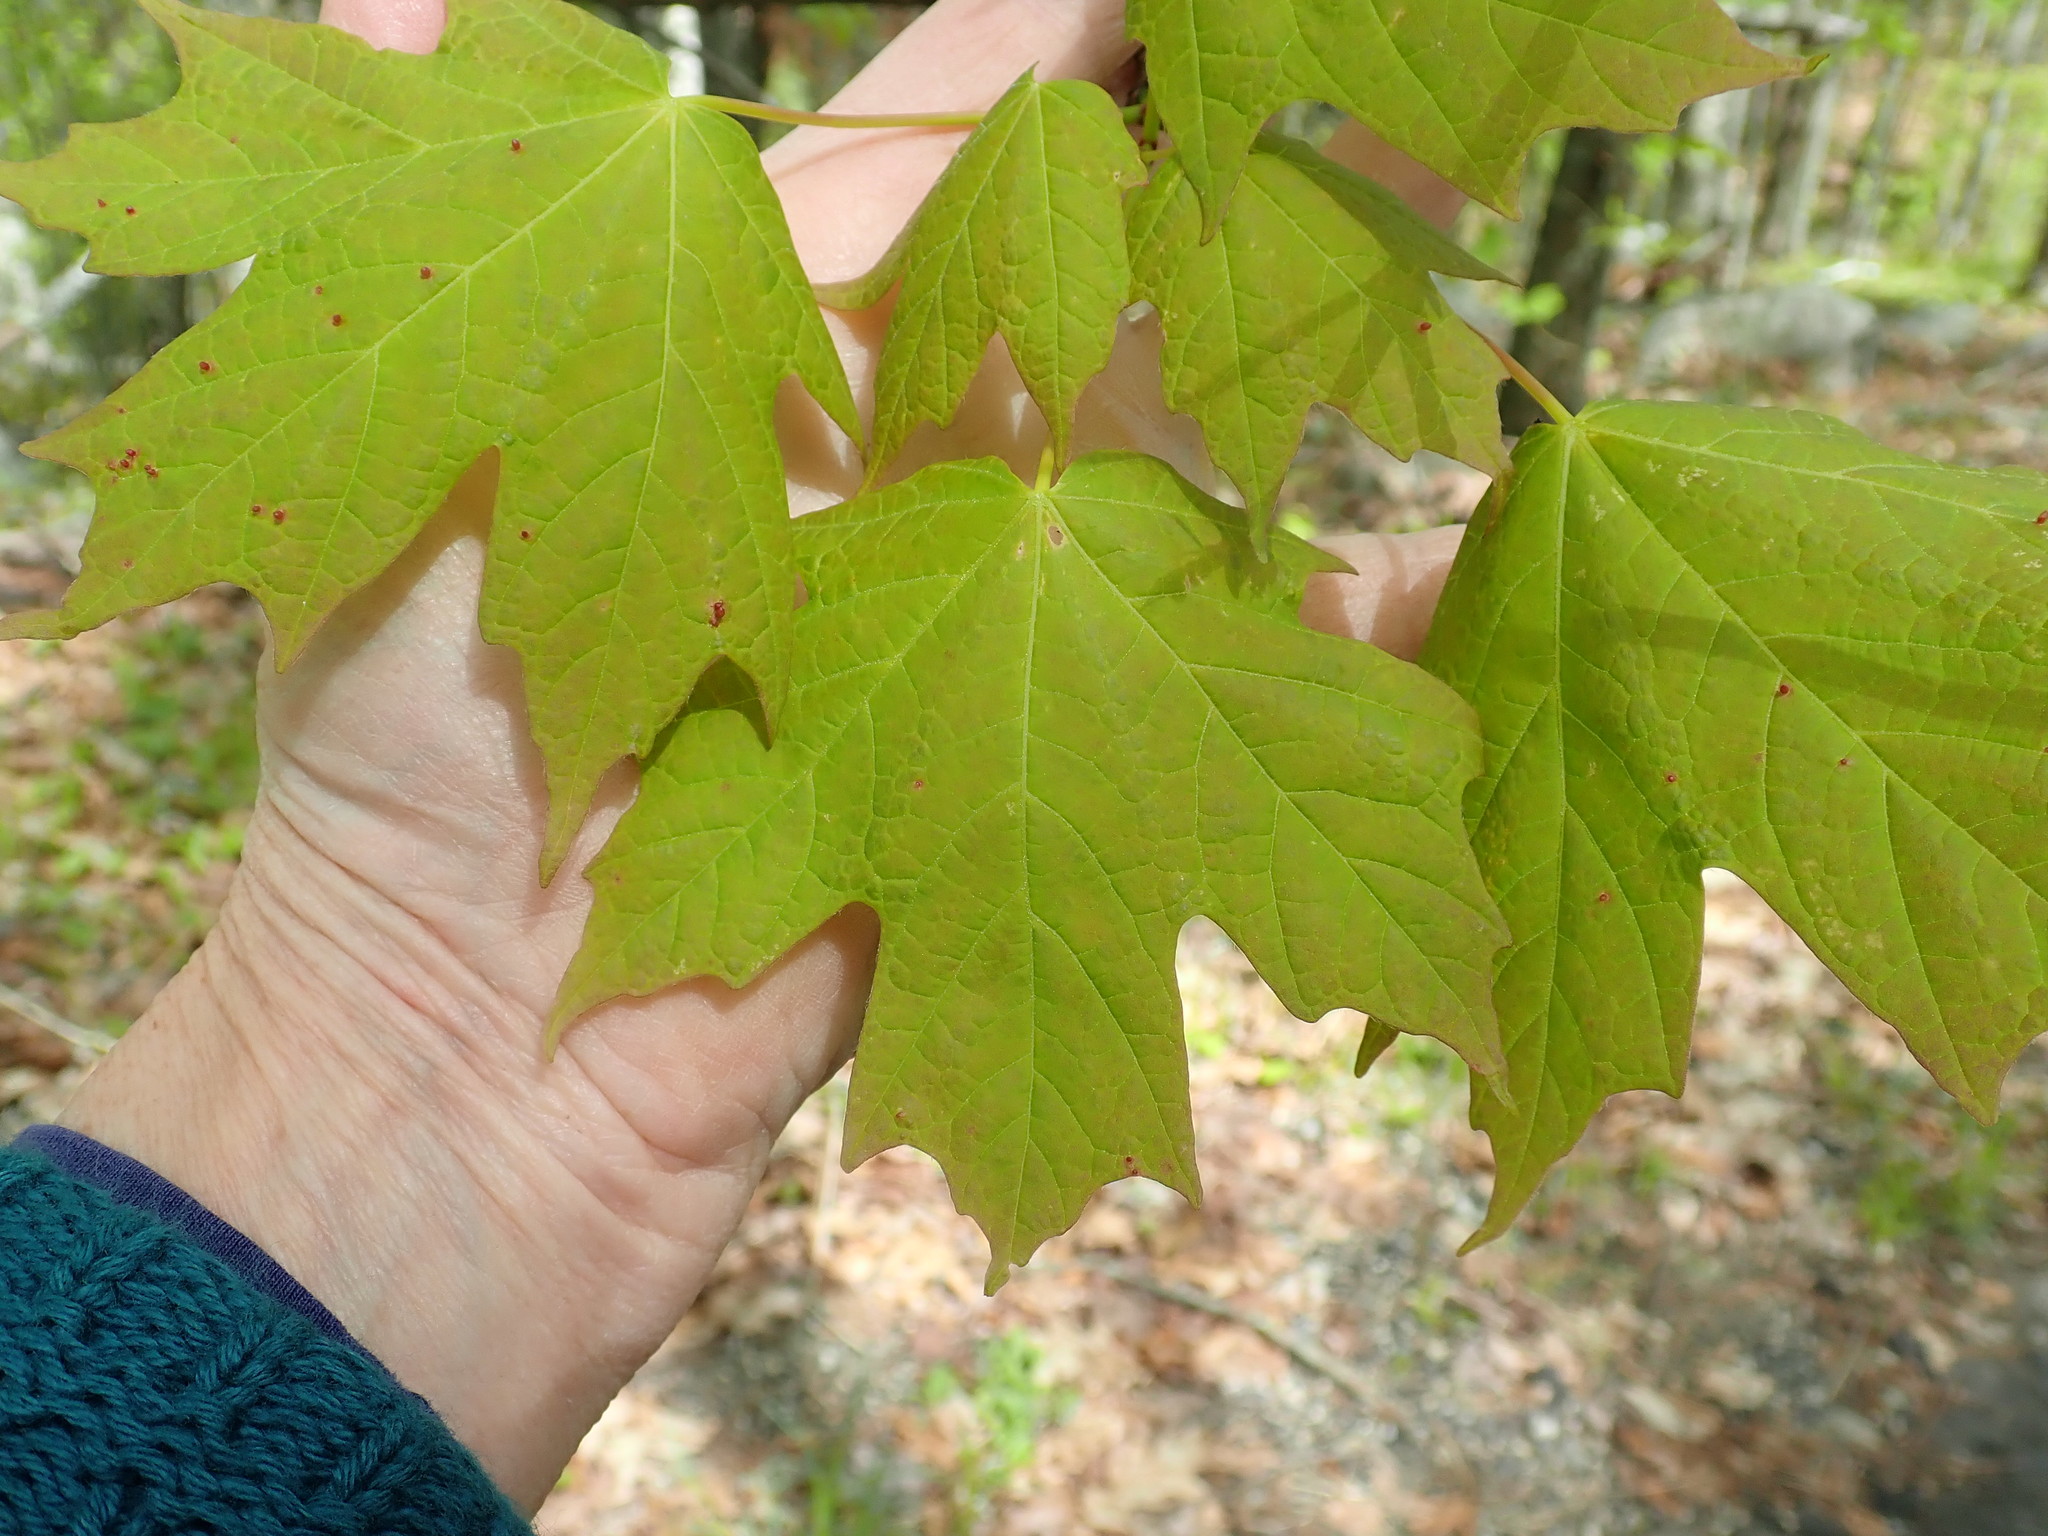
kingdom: Plantae
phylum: Tracheophyta
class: Magnoliopsida
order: Sapindales
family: Sapindaceae
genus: Acer
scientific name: Acer saccharum
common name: Sugar maple
